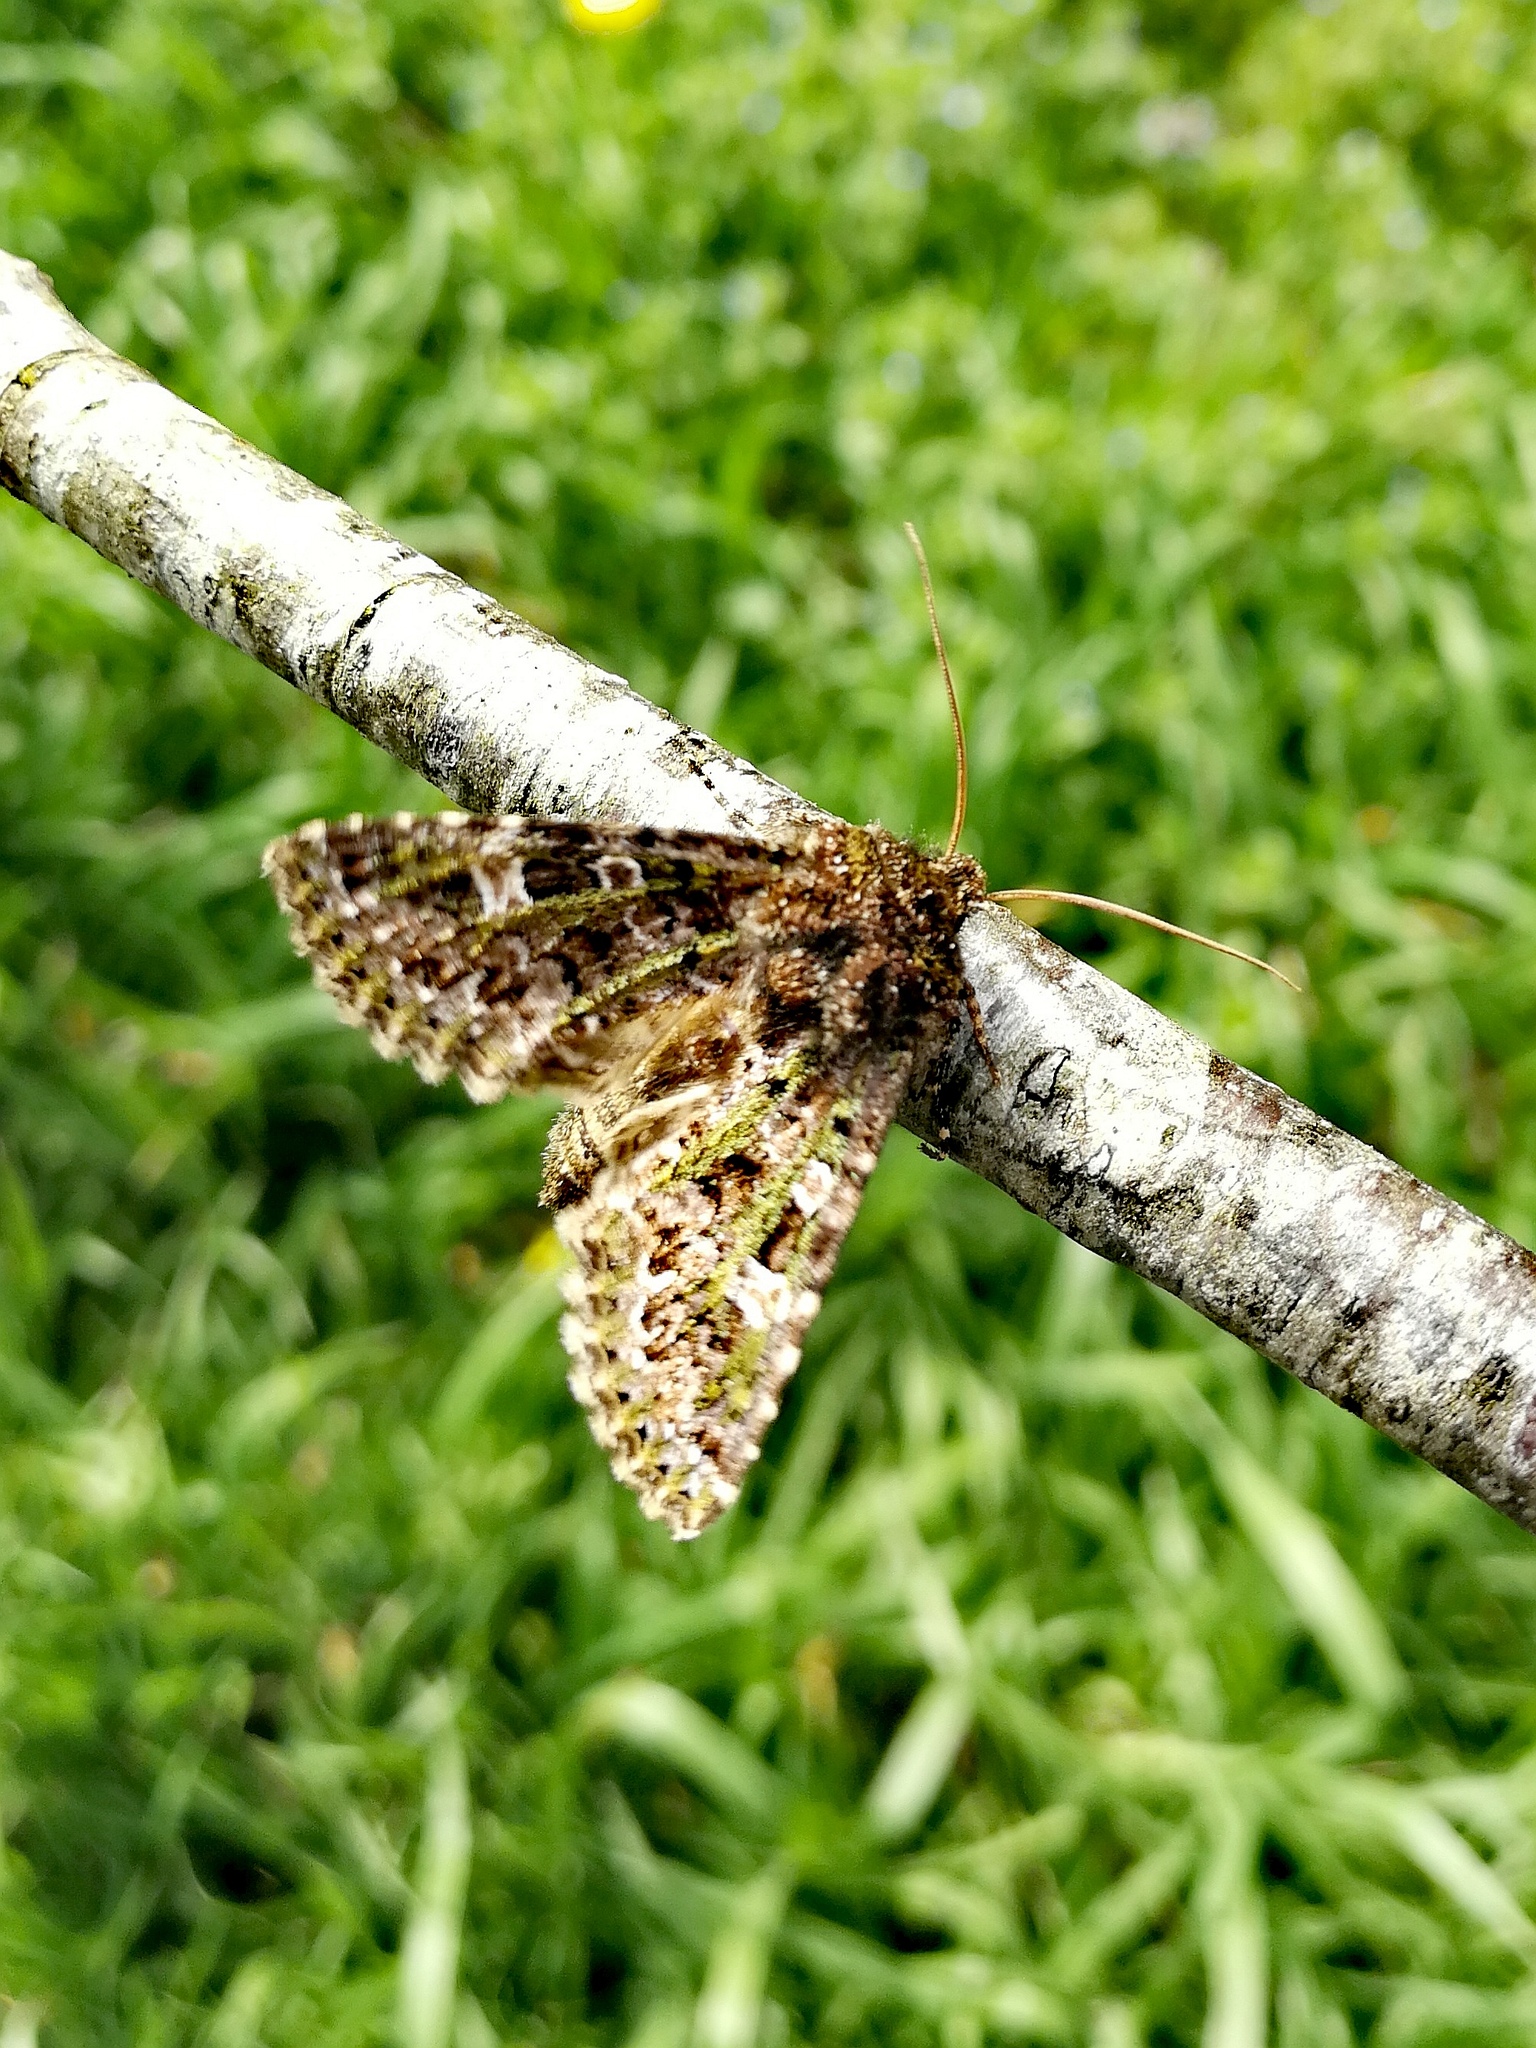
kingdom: Animalia
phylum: Arthropoda
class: Insecta
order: Lepidoptera
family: Noctuidae
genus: Valeria
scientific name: Valeria jaspidea
